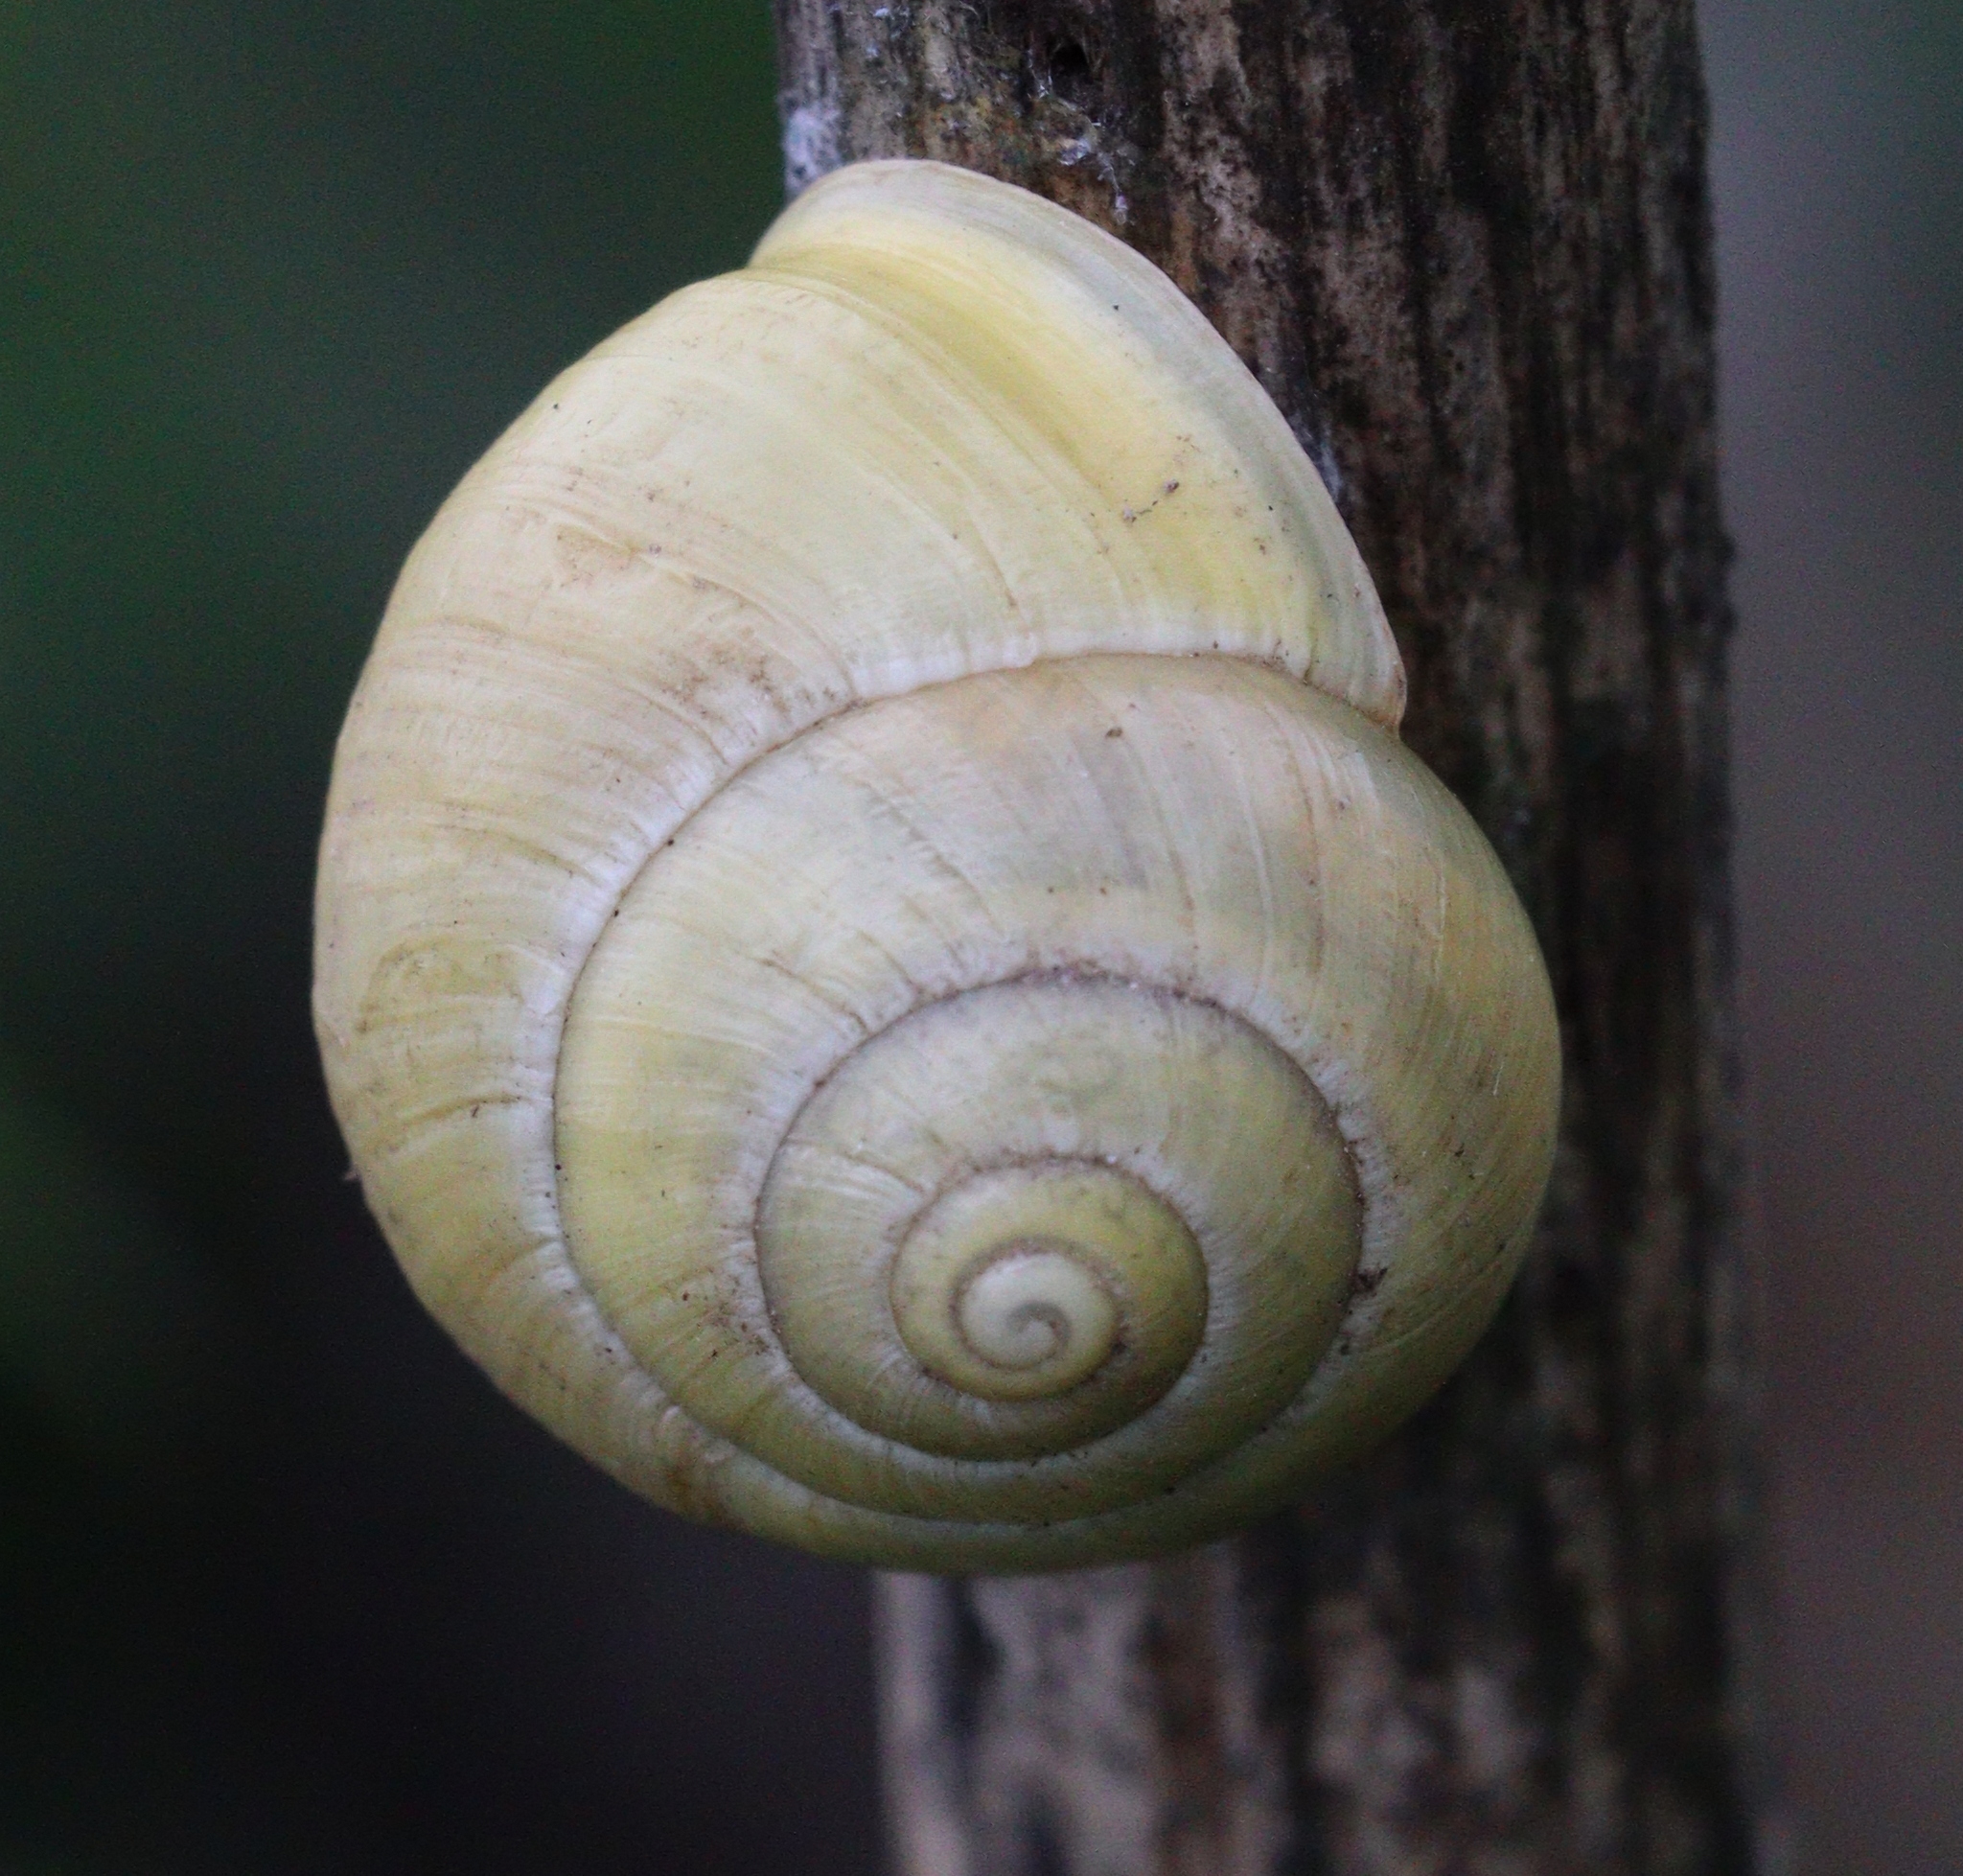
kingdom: Animalia
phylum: Mollusca
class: Gastropoda
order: Stylommatophora
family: Helicidae
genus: Cepaea
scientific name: Cepaea hortensis
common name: White-lip gardensnail
